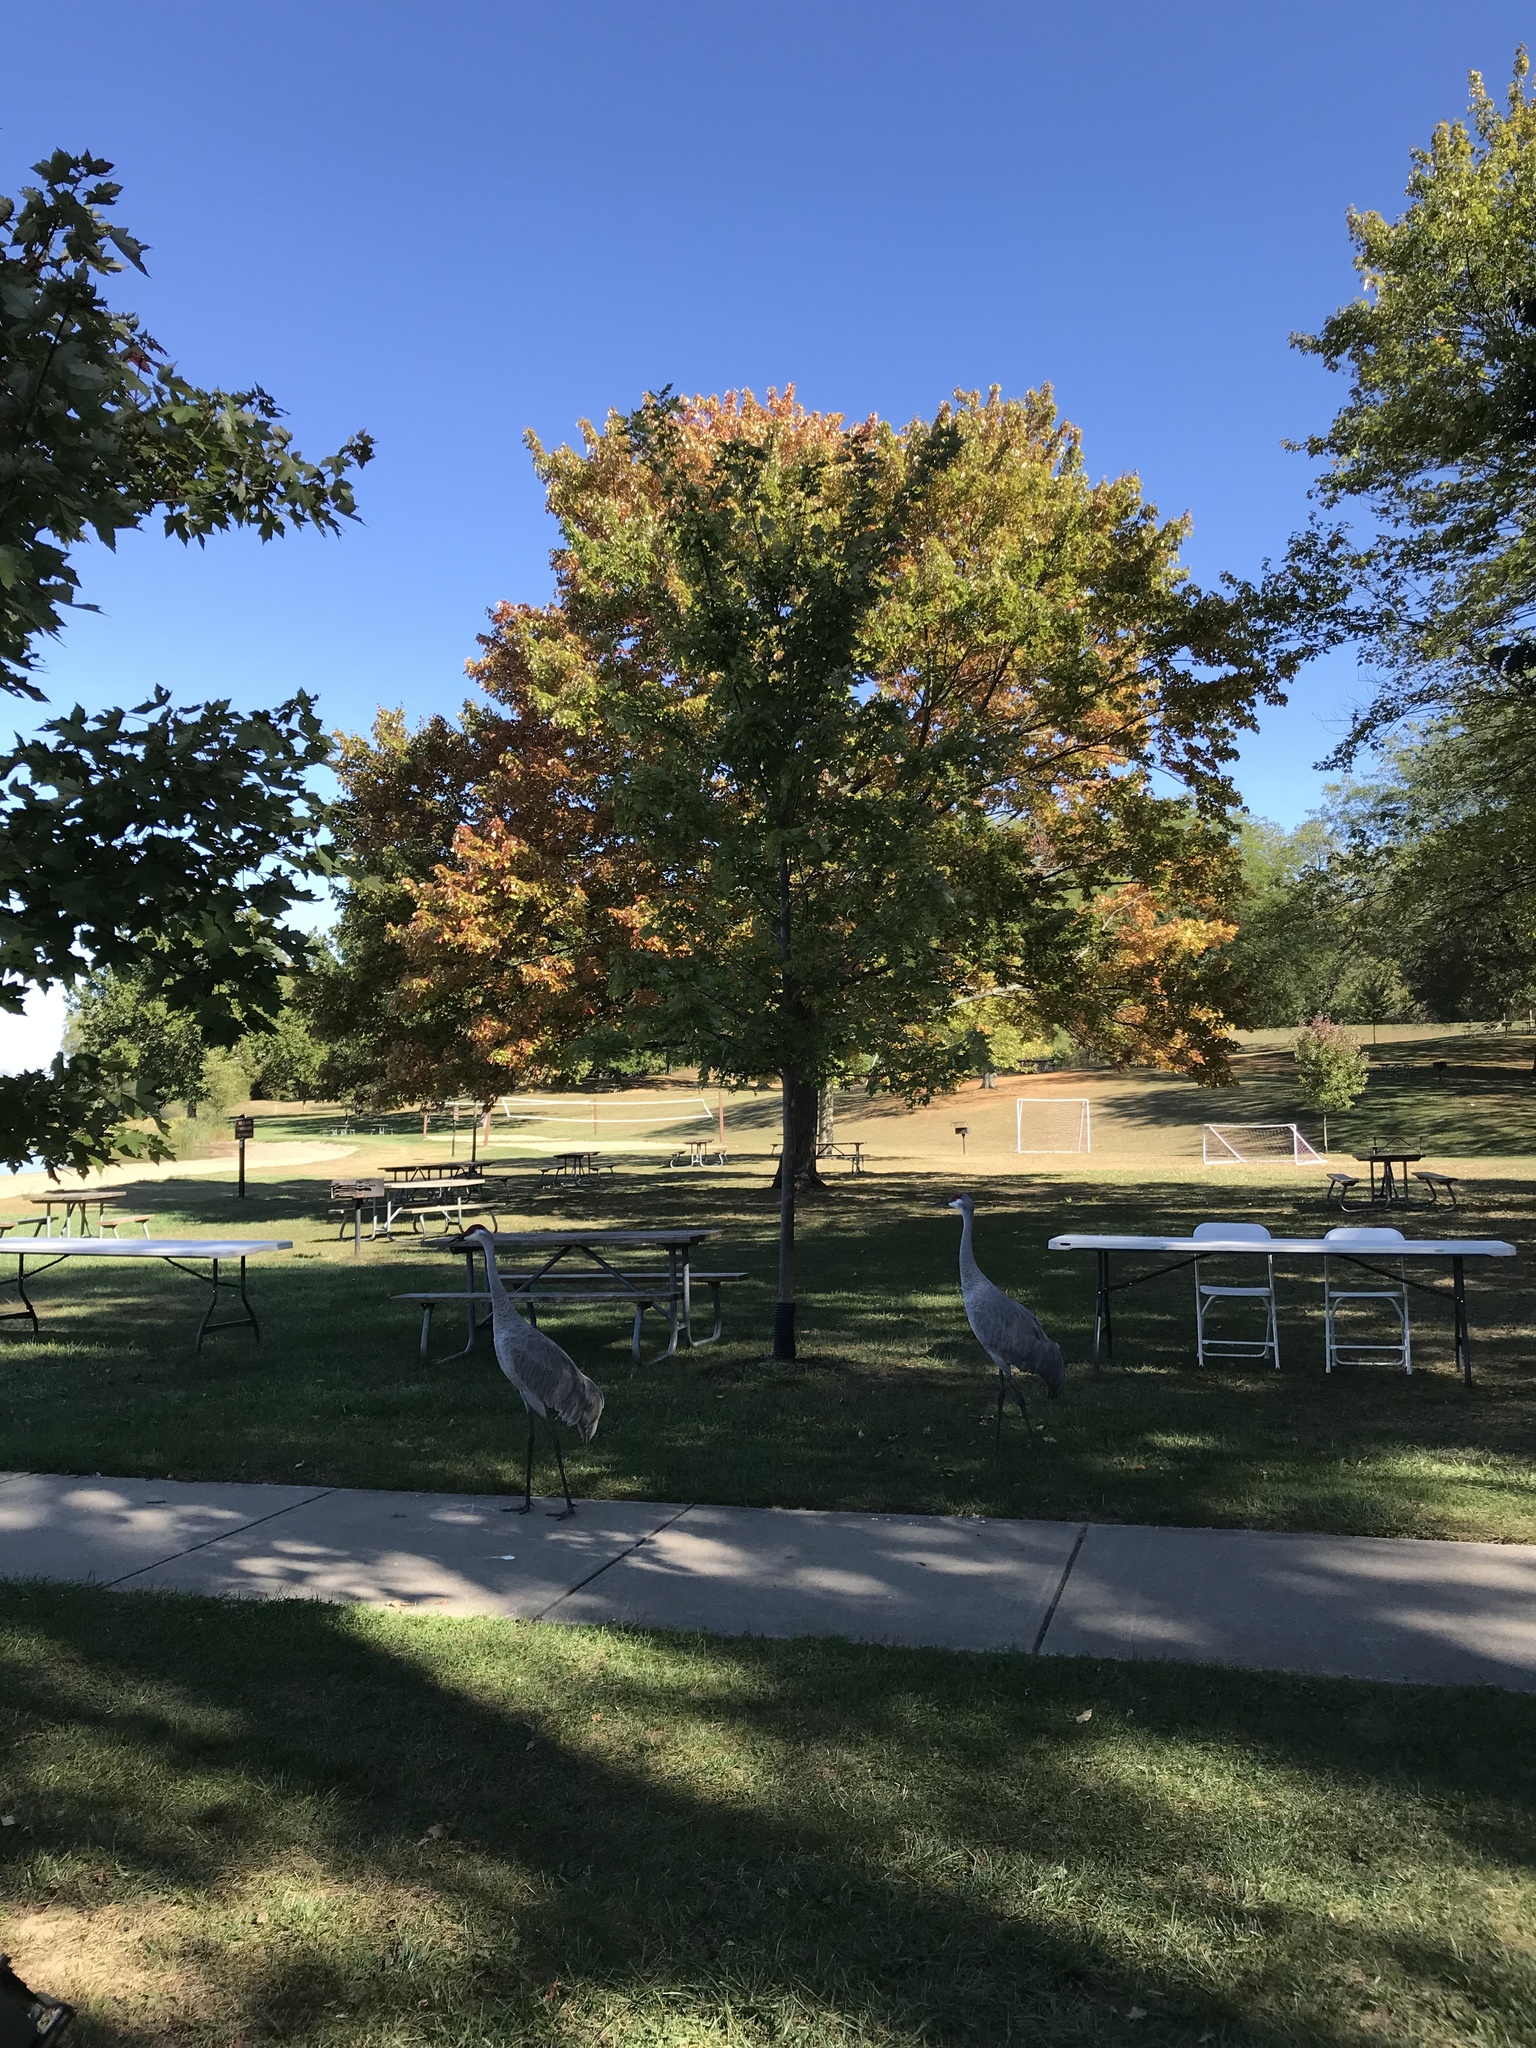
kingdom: Animalia
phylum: Chordata
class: Aves
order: Gruiformes
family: Gruidae
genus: Grus
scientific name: Grus canadensis
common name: Sandhill crane
